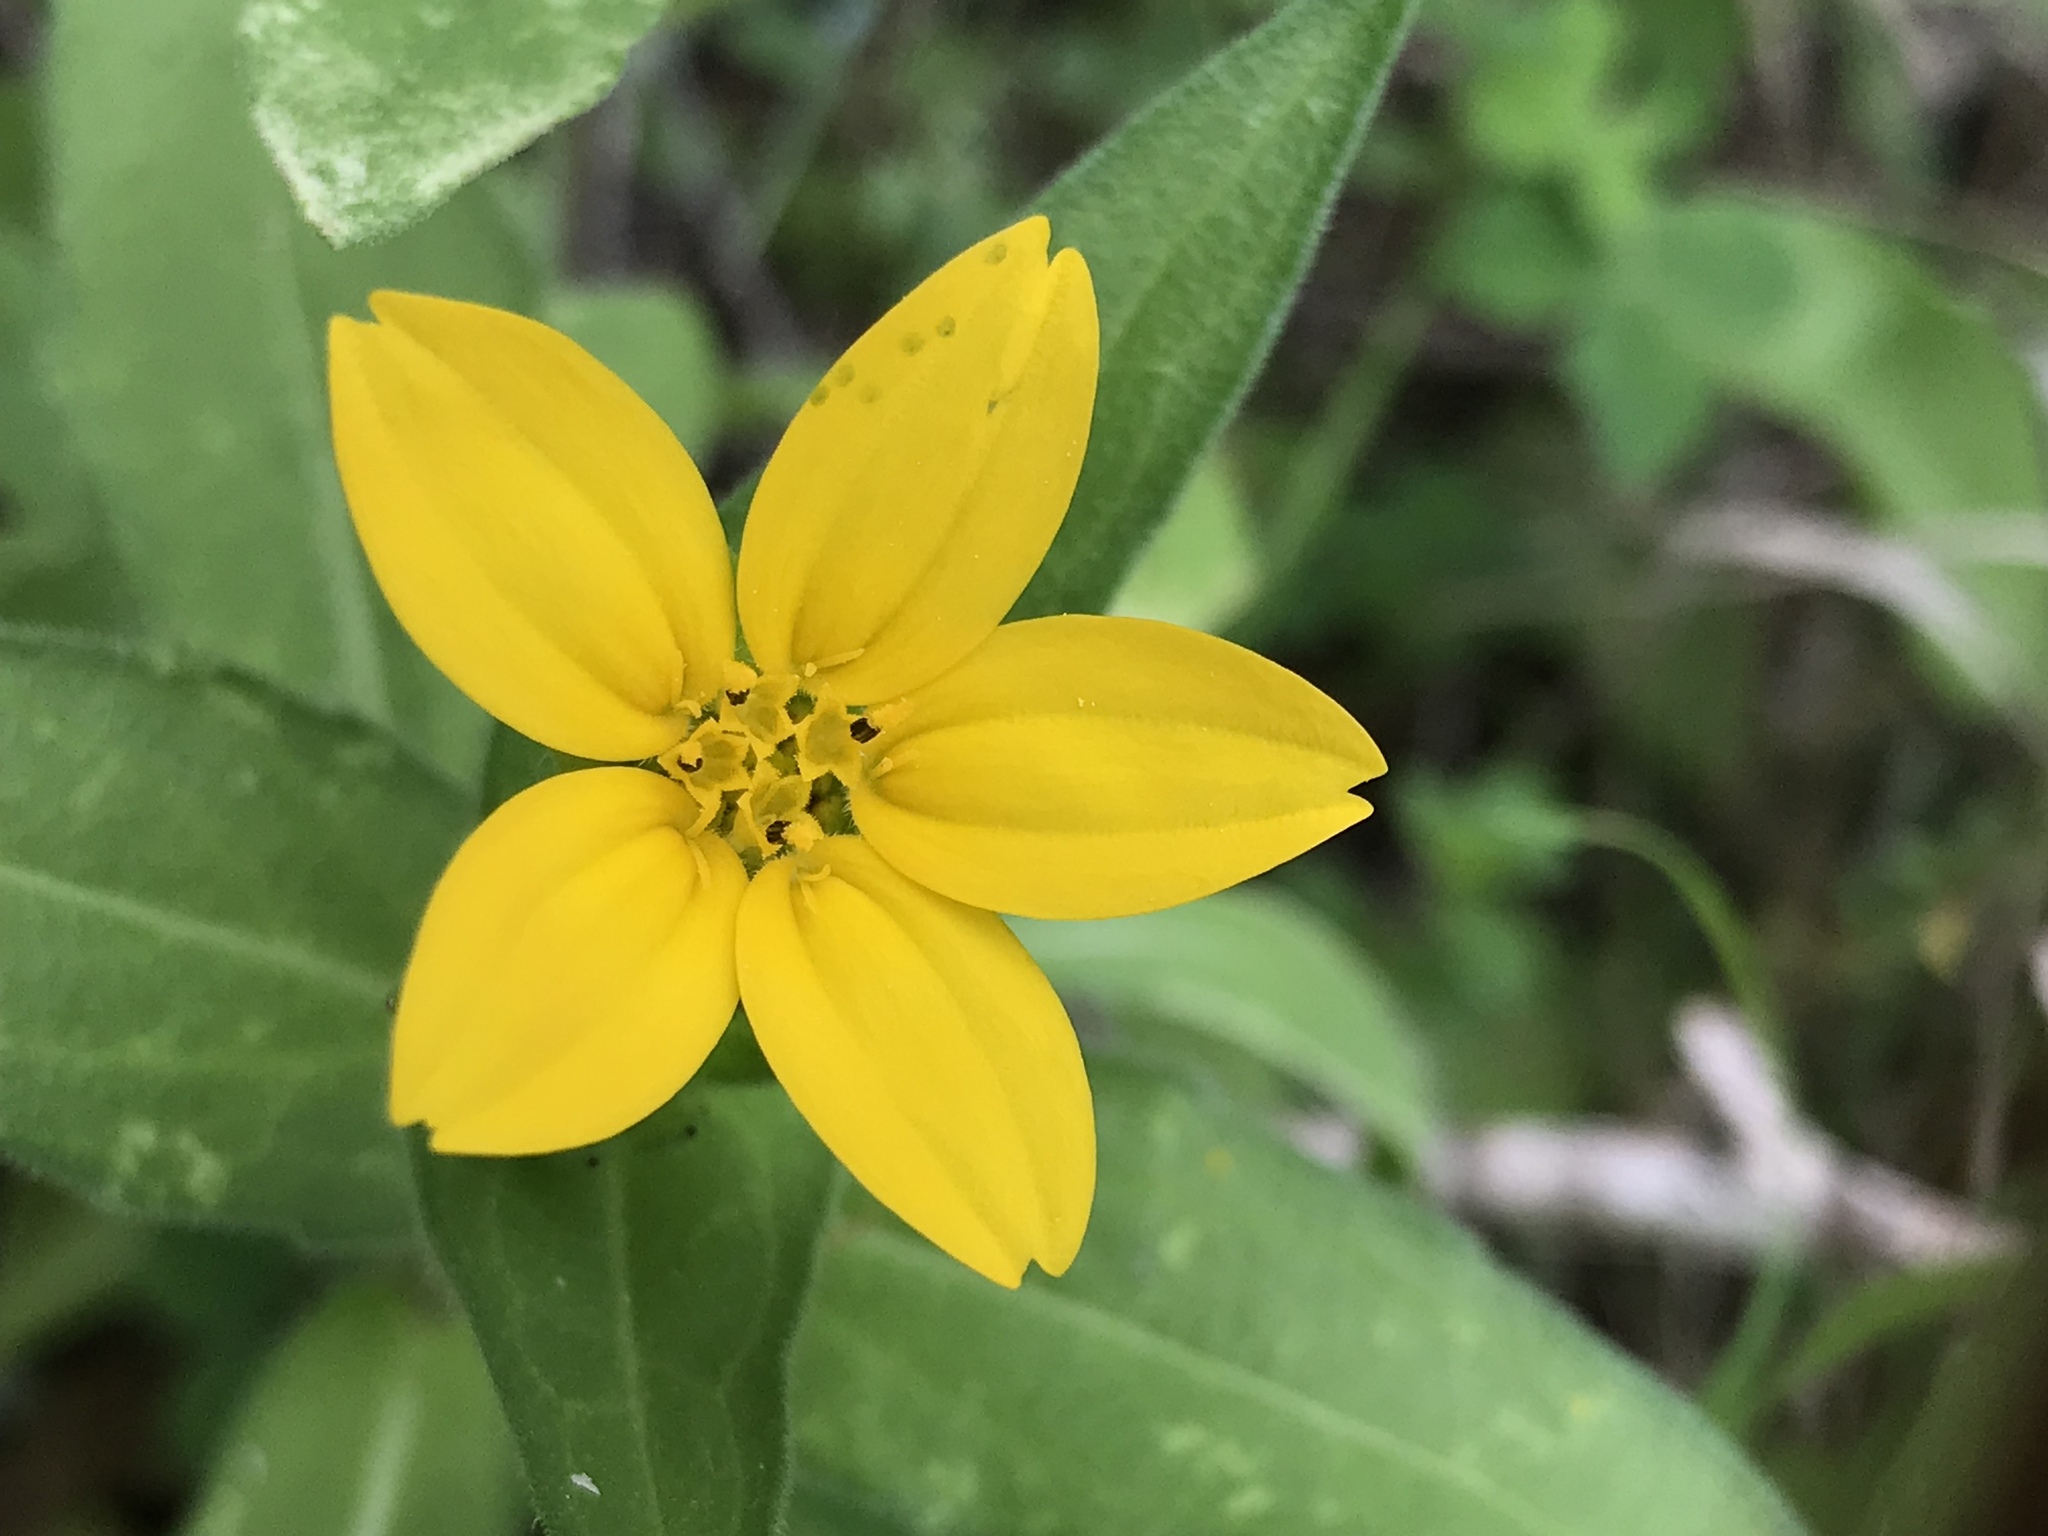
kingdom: Plantae
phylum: Tracheophyta
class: Magnoliopsida
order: Asterales
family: Asteraceae
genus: Lindheimera
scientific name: Lindheimera texana
